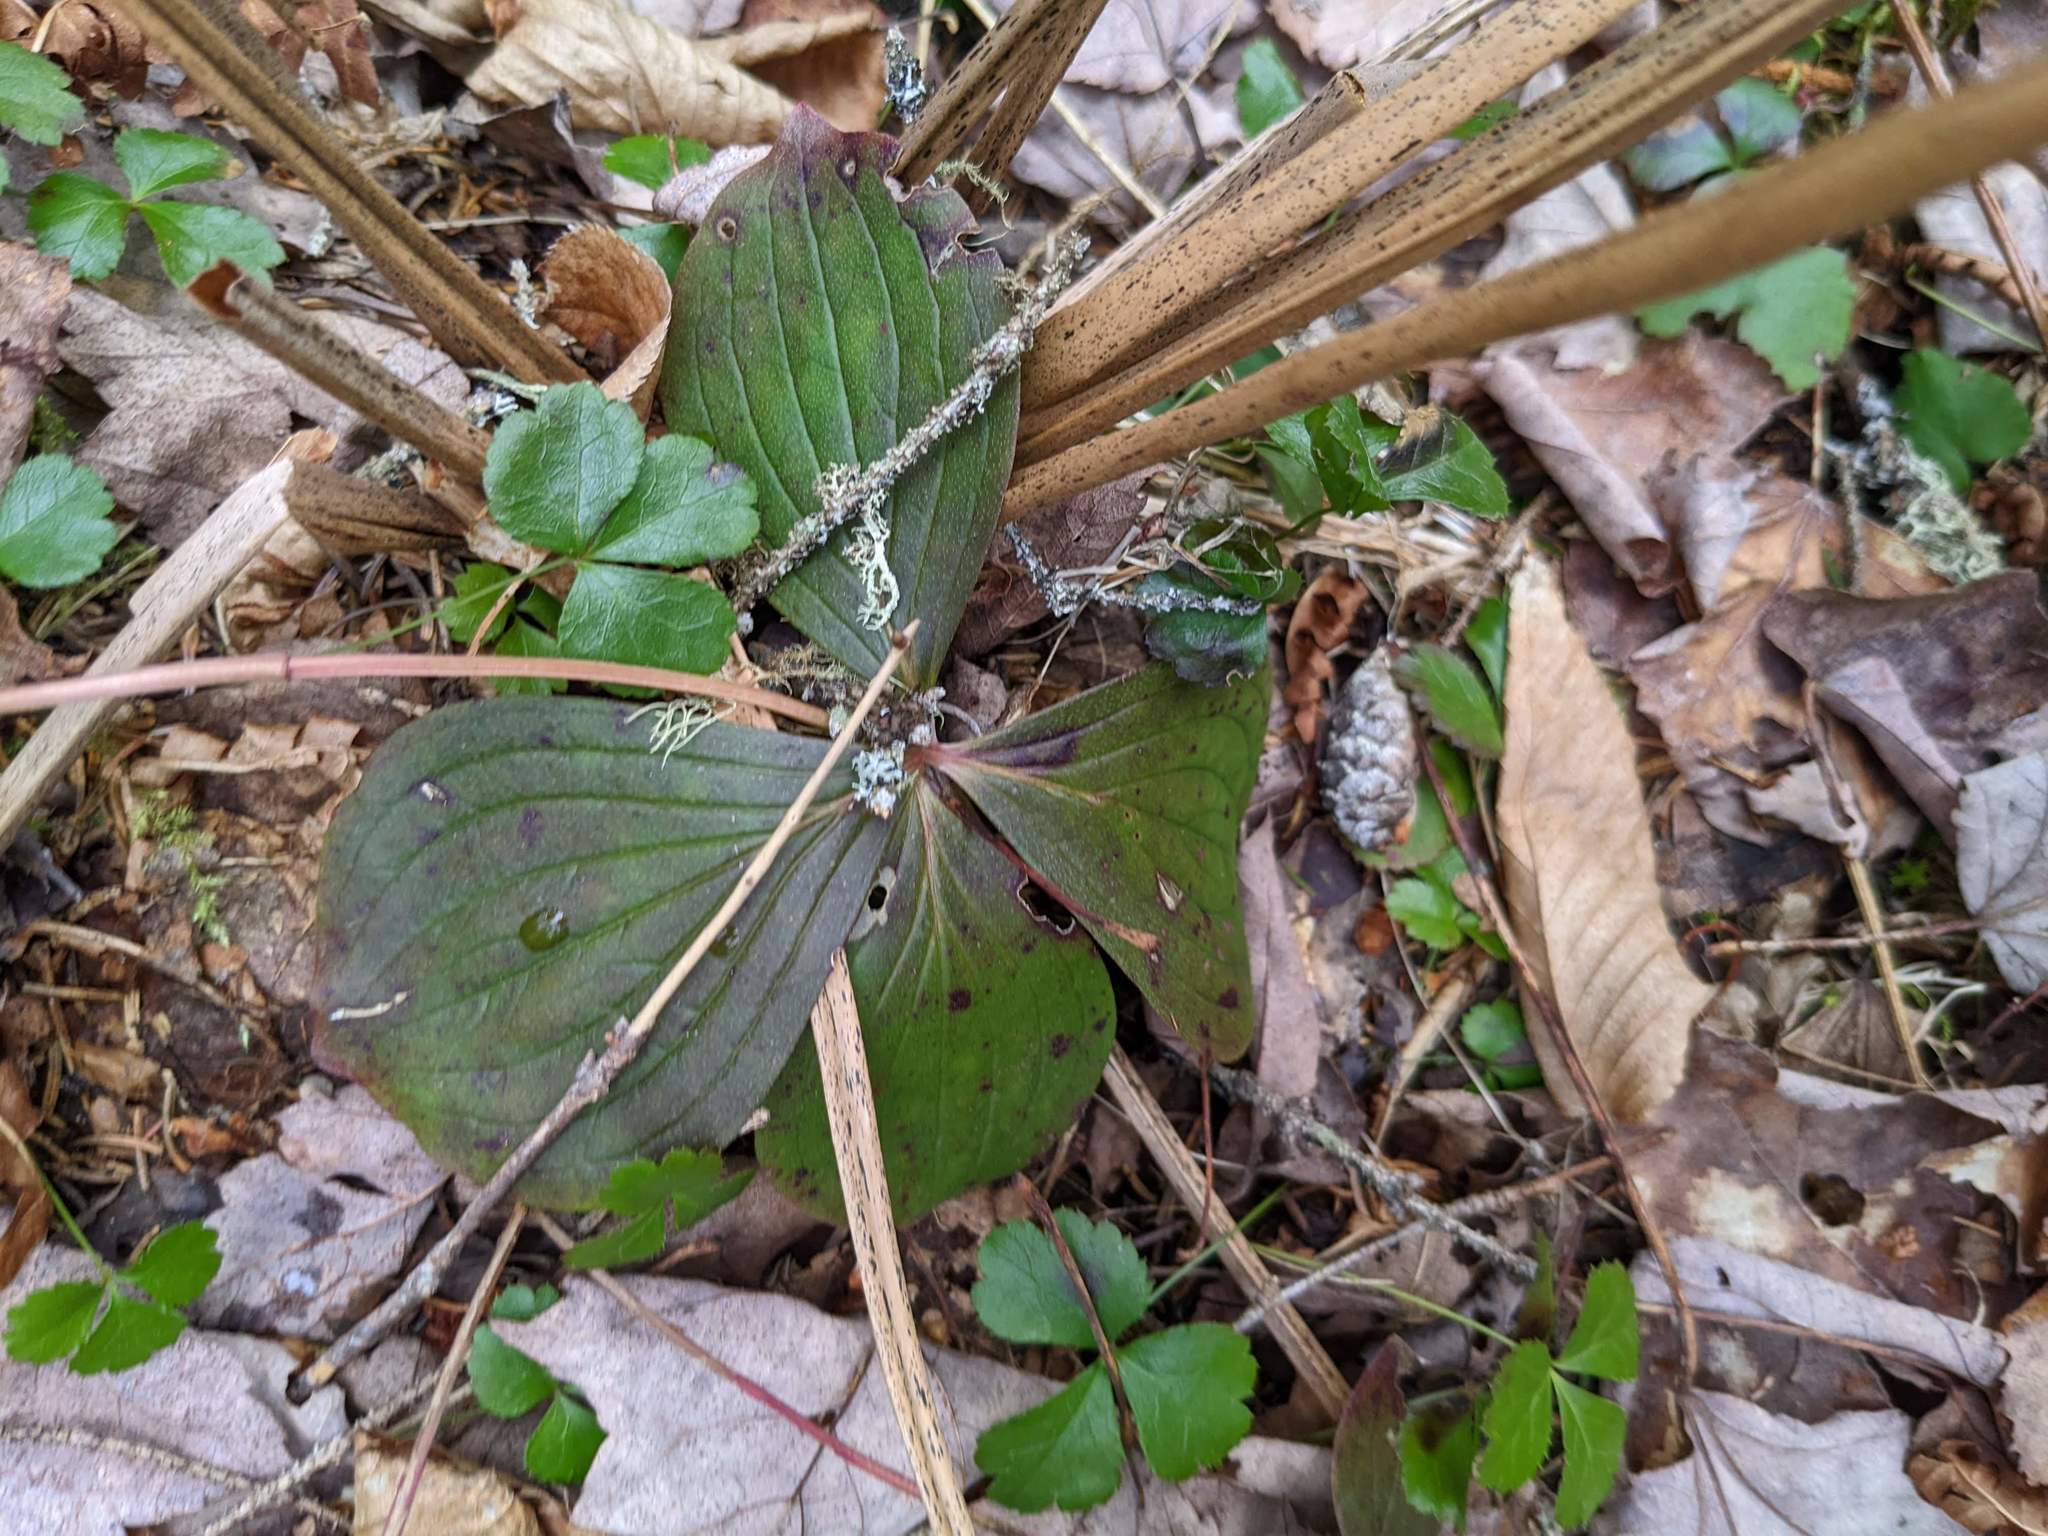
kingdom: Plantae
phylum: Tracheophyta
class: Magnoliopsida
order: Cornales
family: Cornaceae
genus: Cornus
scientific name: Cornus canadensis
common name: Creeping dogwood
